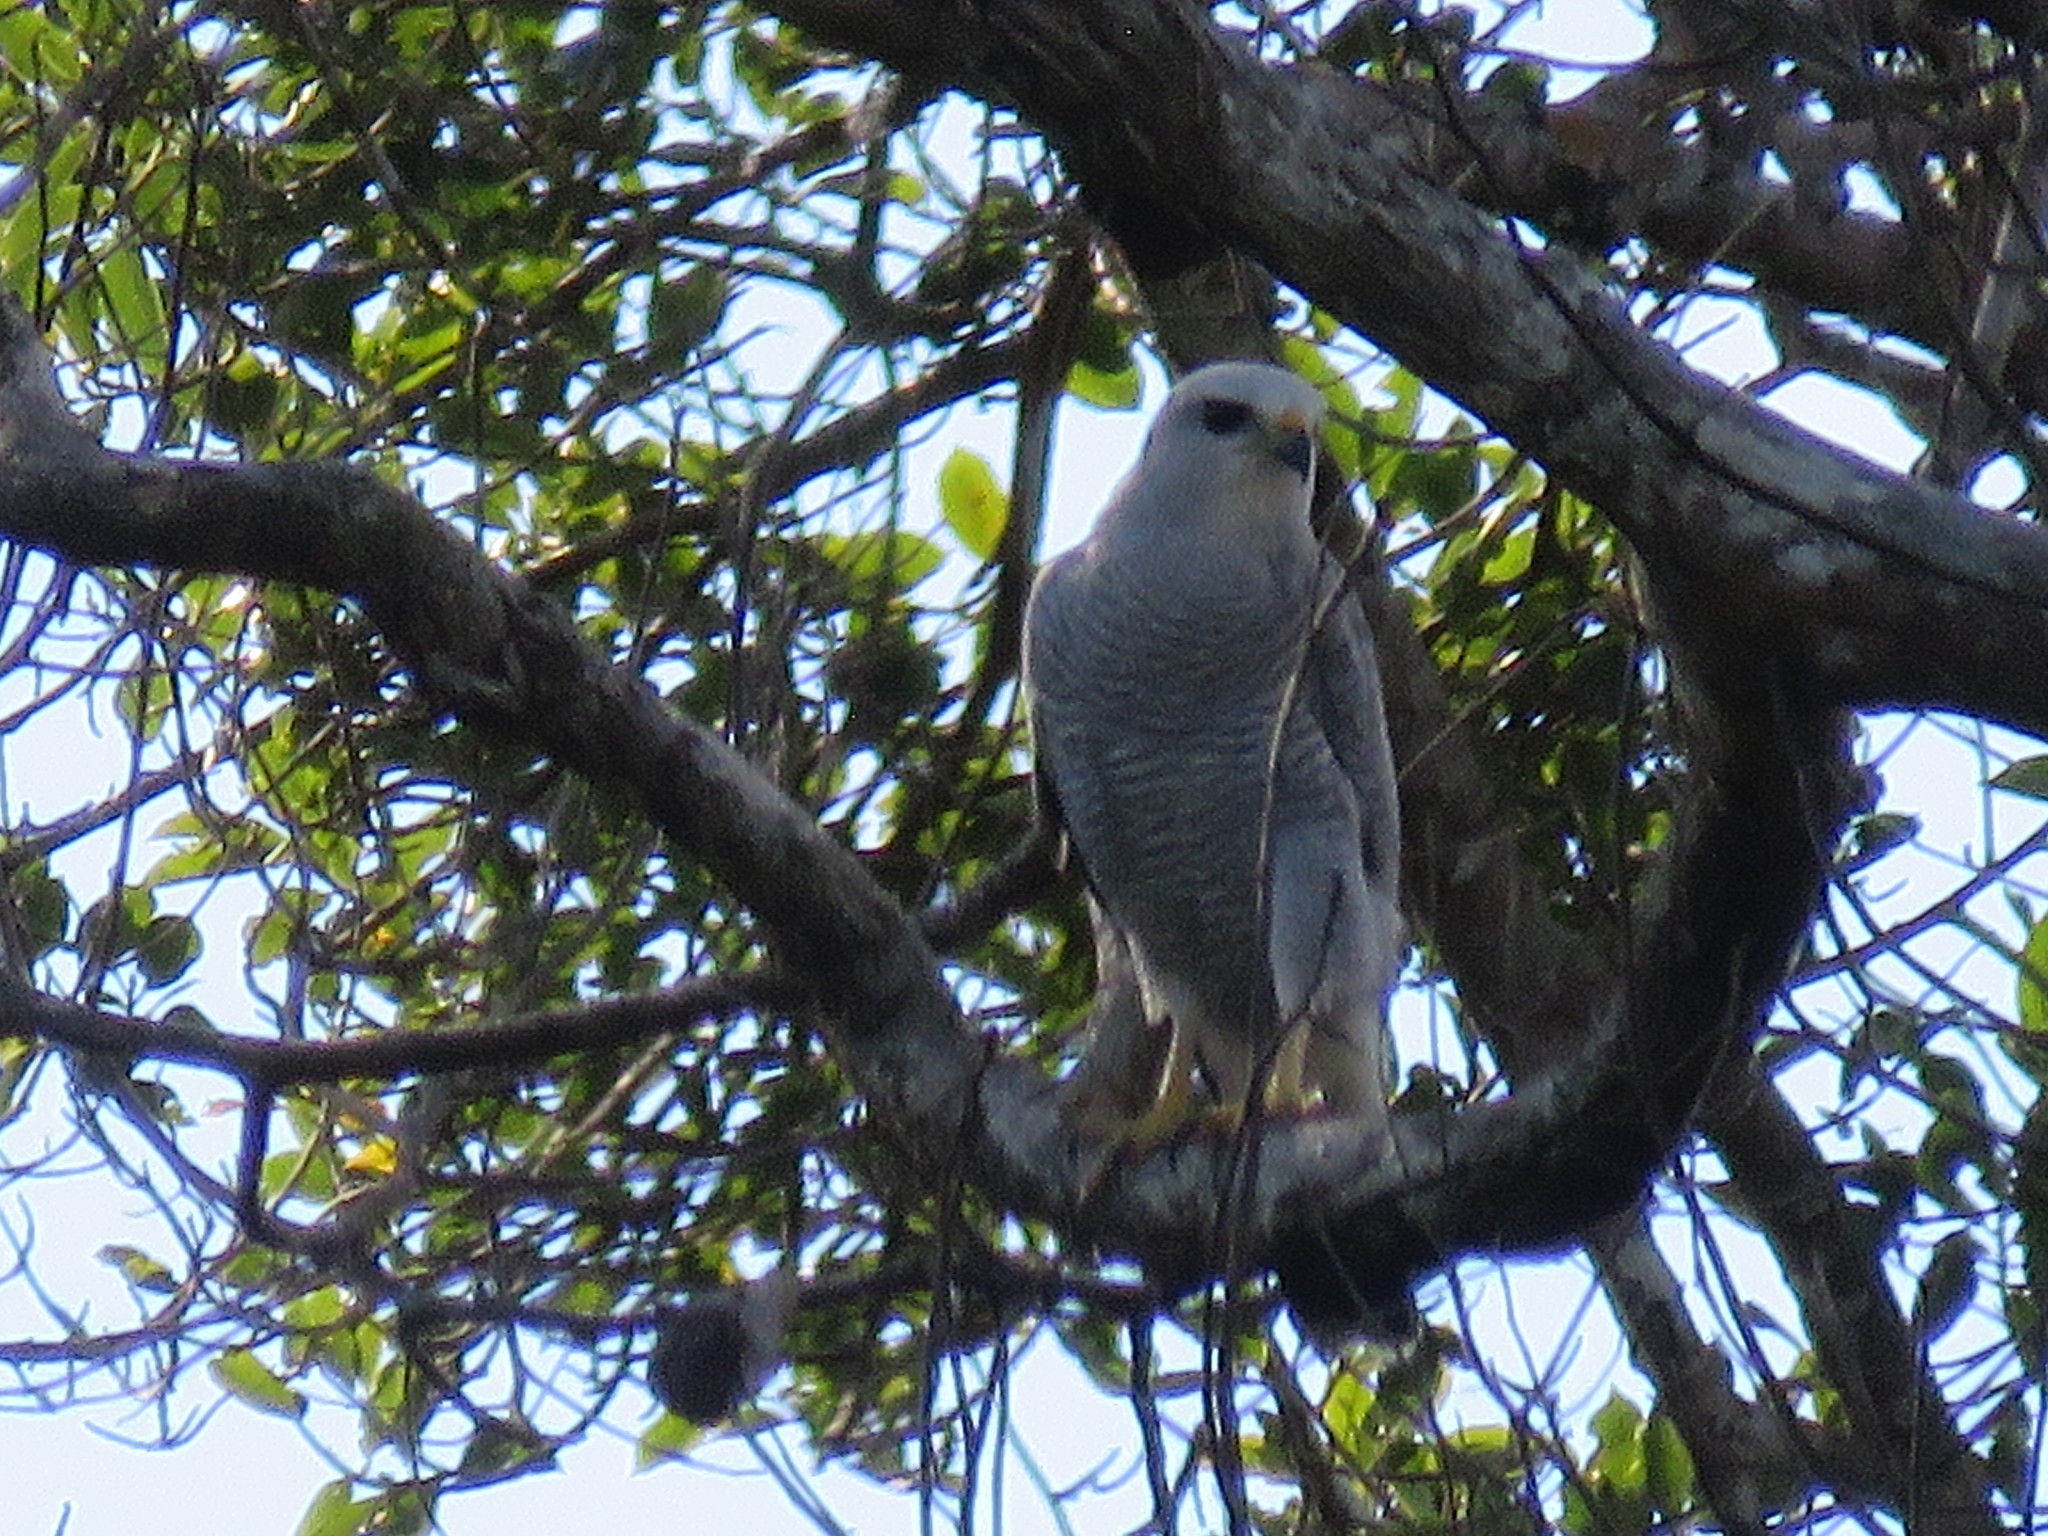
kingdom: Animalia
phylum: Chordata
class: Aves
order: Accipitriformes
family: Accipitridae
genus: Buteo
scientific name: Buteo nitidus
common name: Grey-lined hawk
